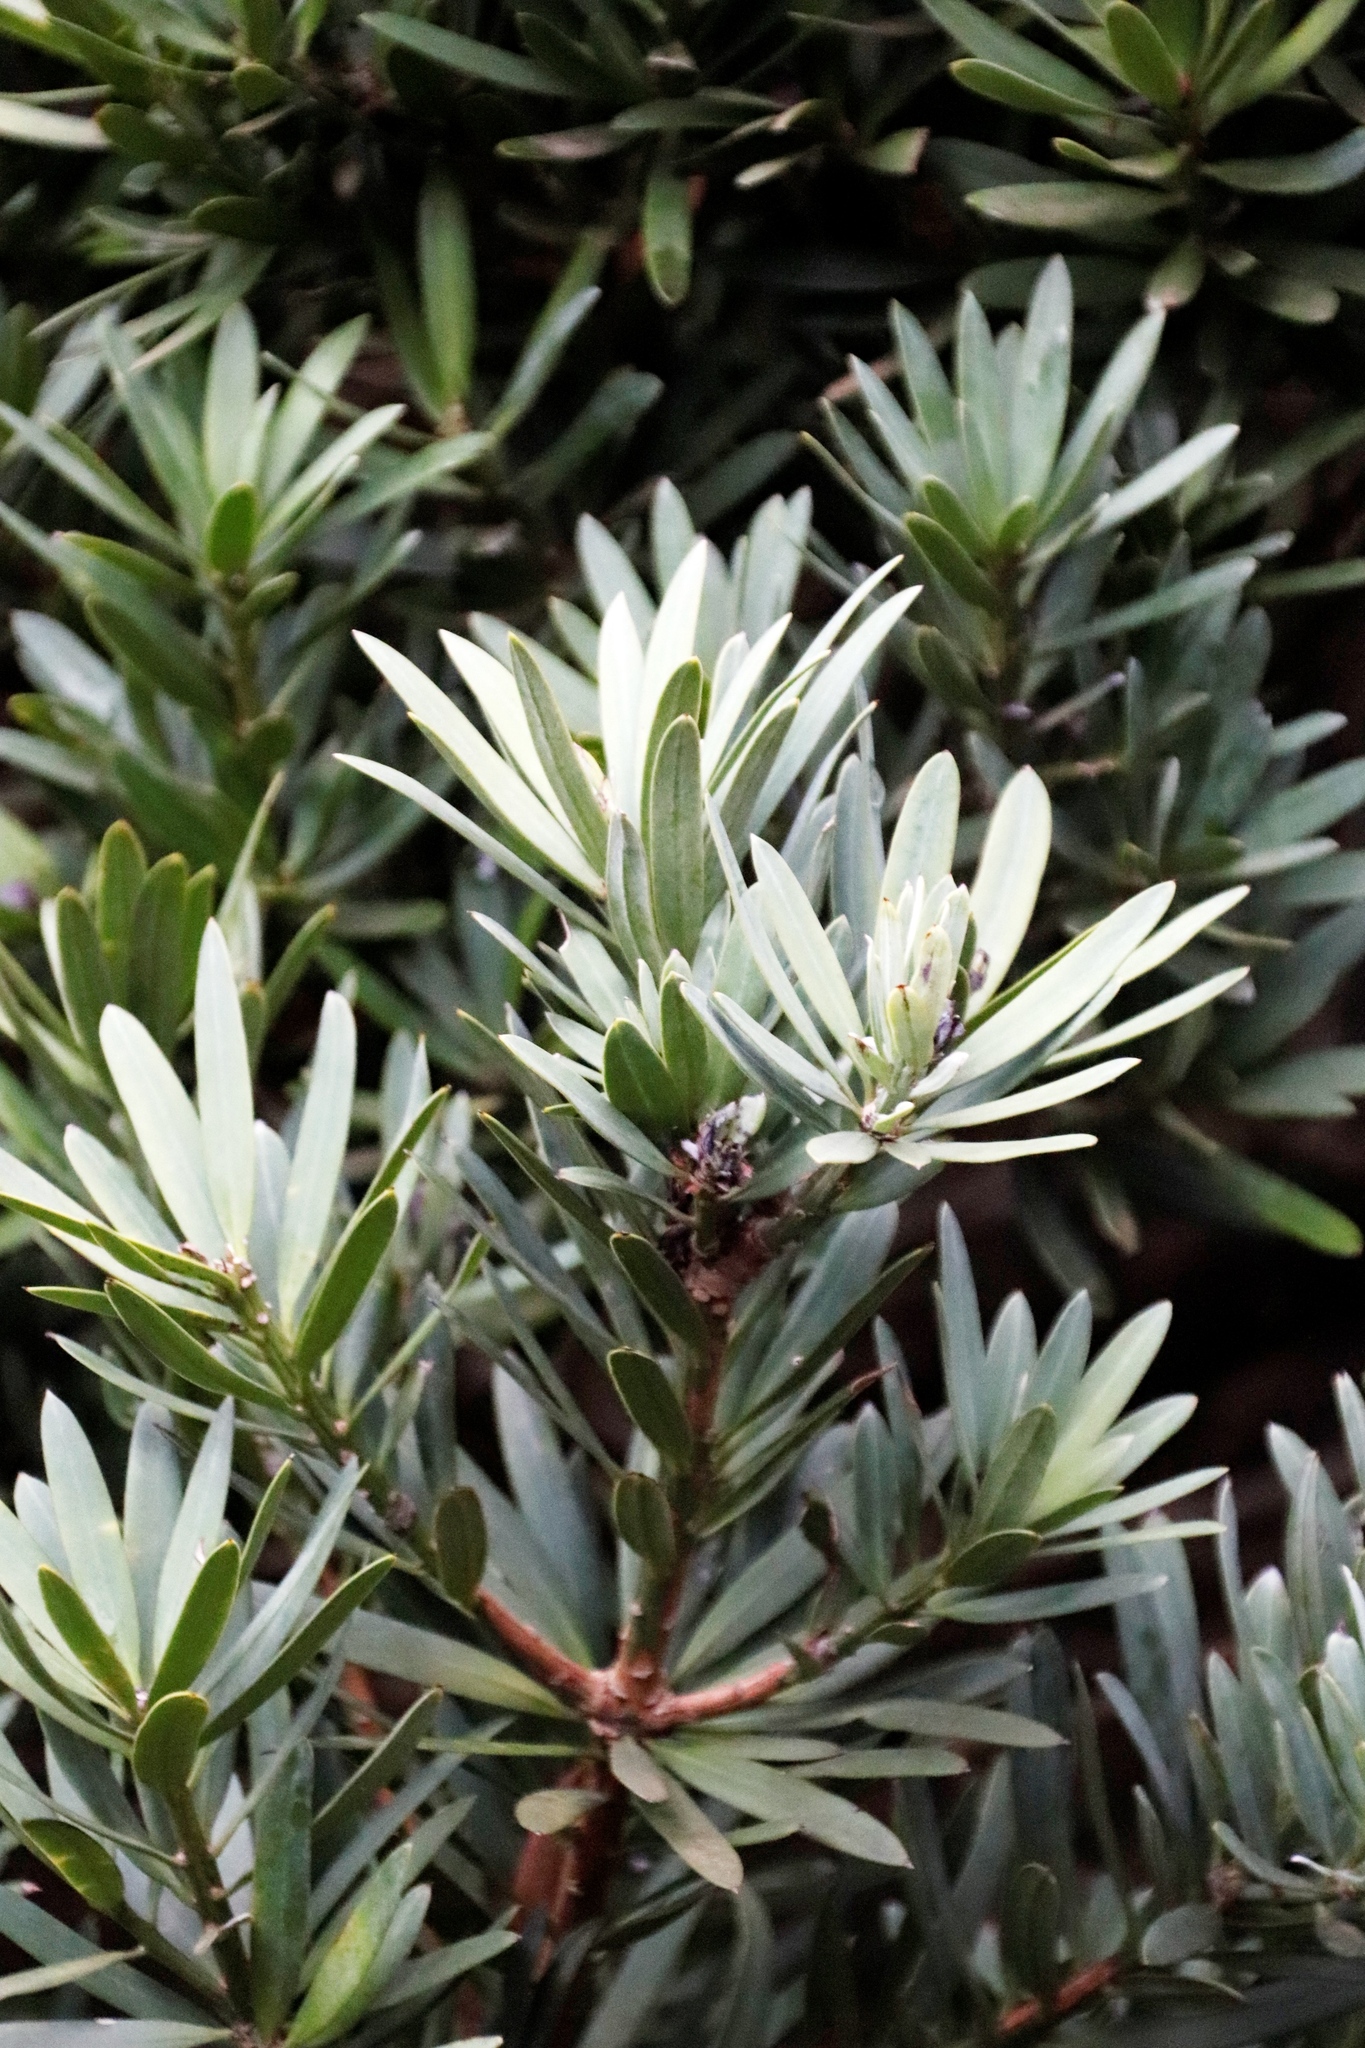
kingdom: Plantae
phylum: Tracheophyta
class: Pinopsida
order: Pinales
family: Podocarpaceae
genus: Podocarpus
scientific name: Podocarpus latifolius
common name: True yellowwood
